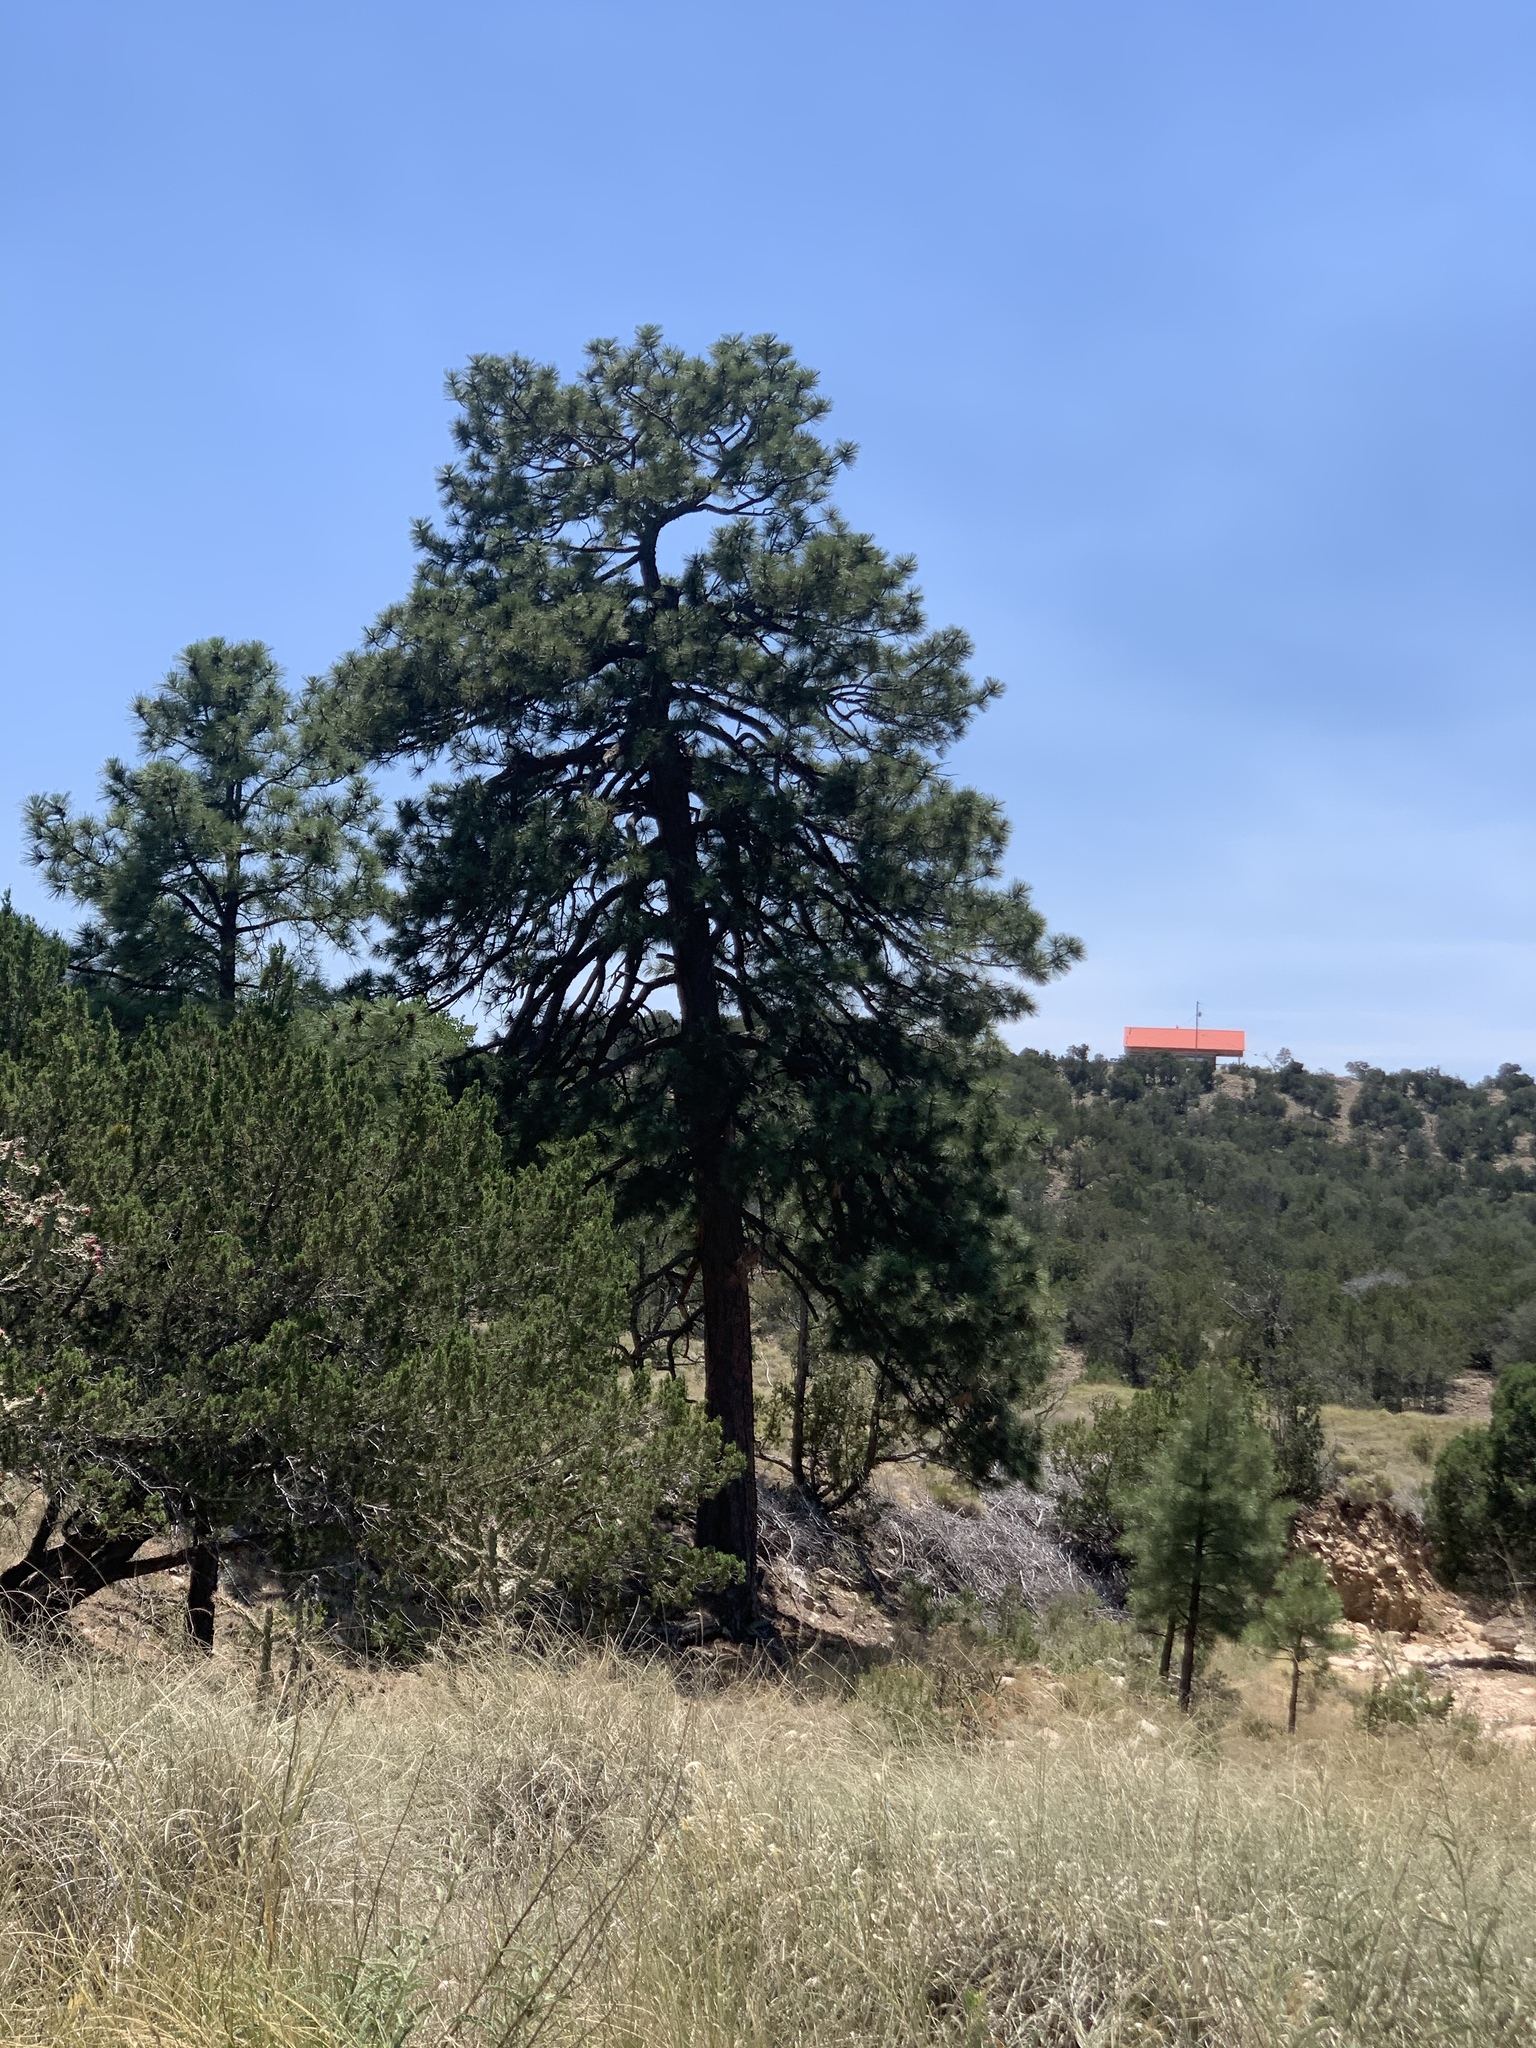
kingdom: Plantae
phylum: Tracheophyta
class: Pinopsida
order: Pinales
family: Pinaceae
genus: Pinus
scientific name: Pinus ponderosa
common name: Western yellow-pine
